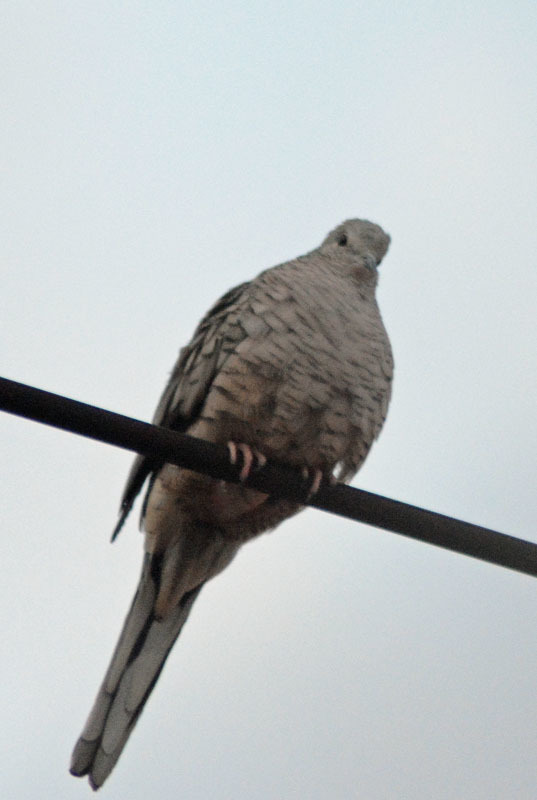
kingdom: Animalia
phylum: Chordata
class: Aves
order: Columbiformes
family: Columbidae
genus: Columbina
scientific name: Columbina inca
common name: Inca dove
